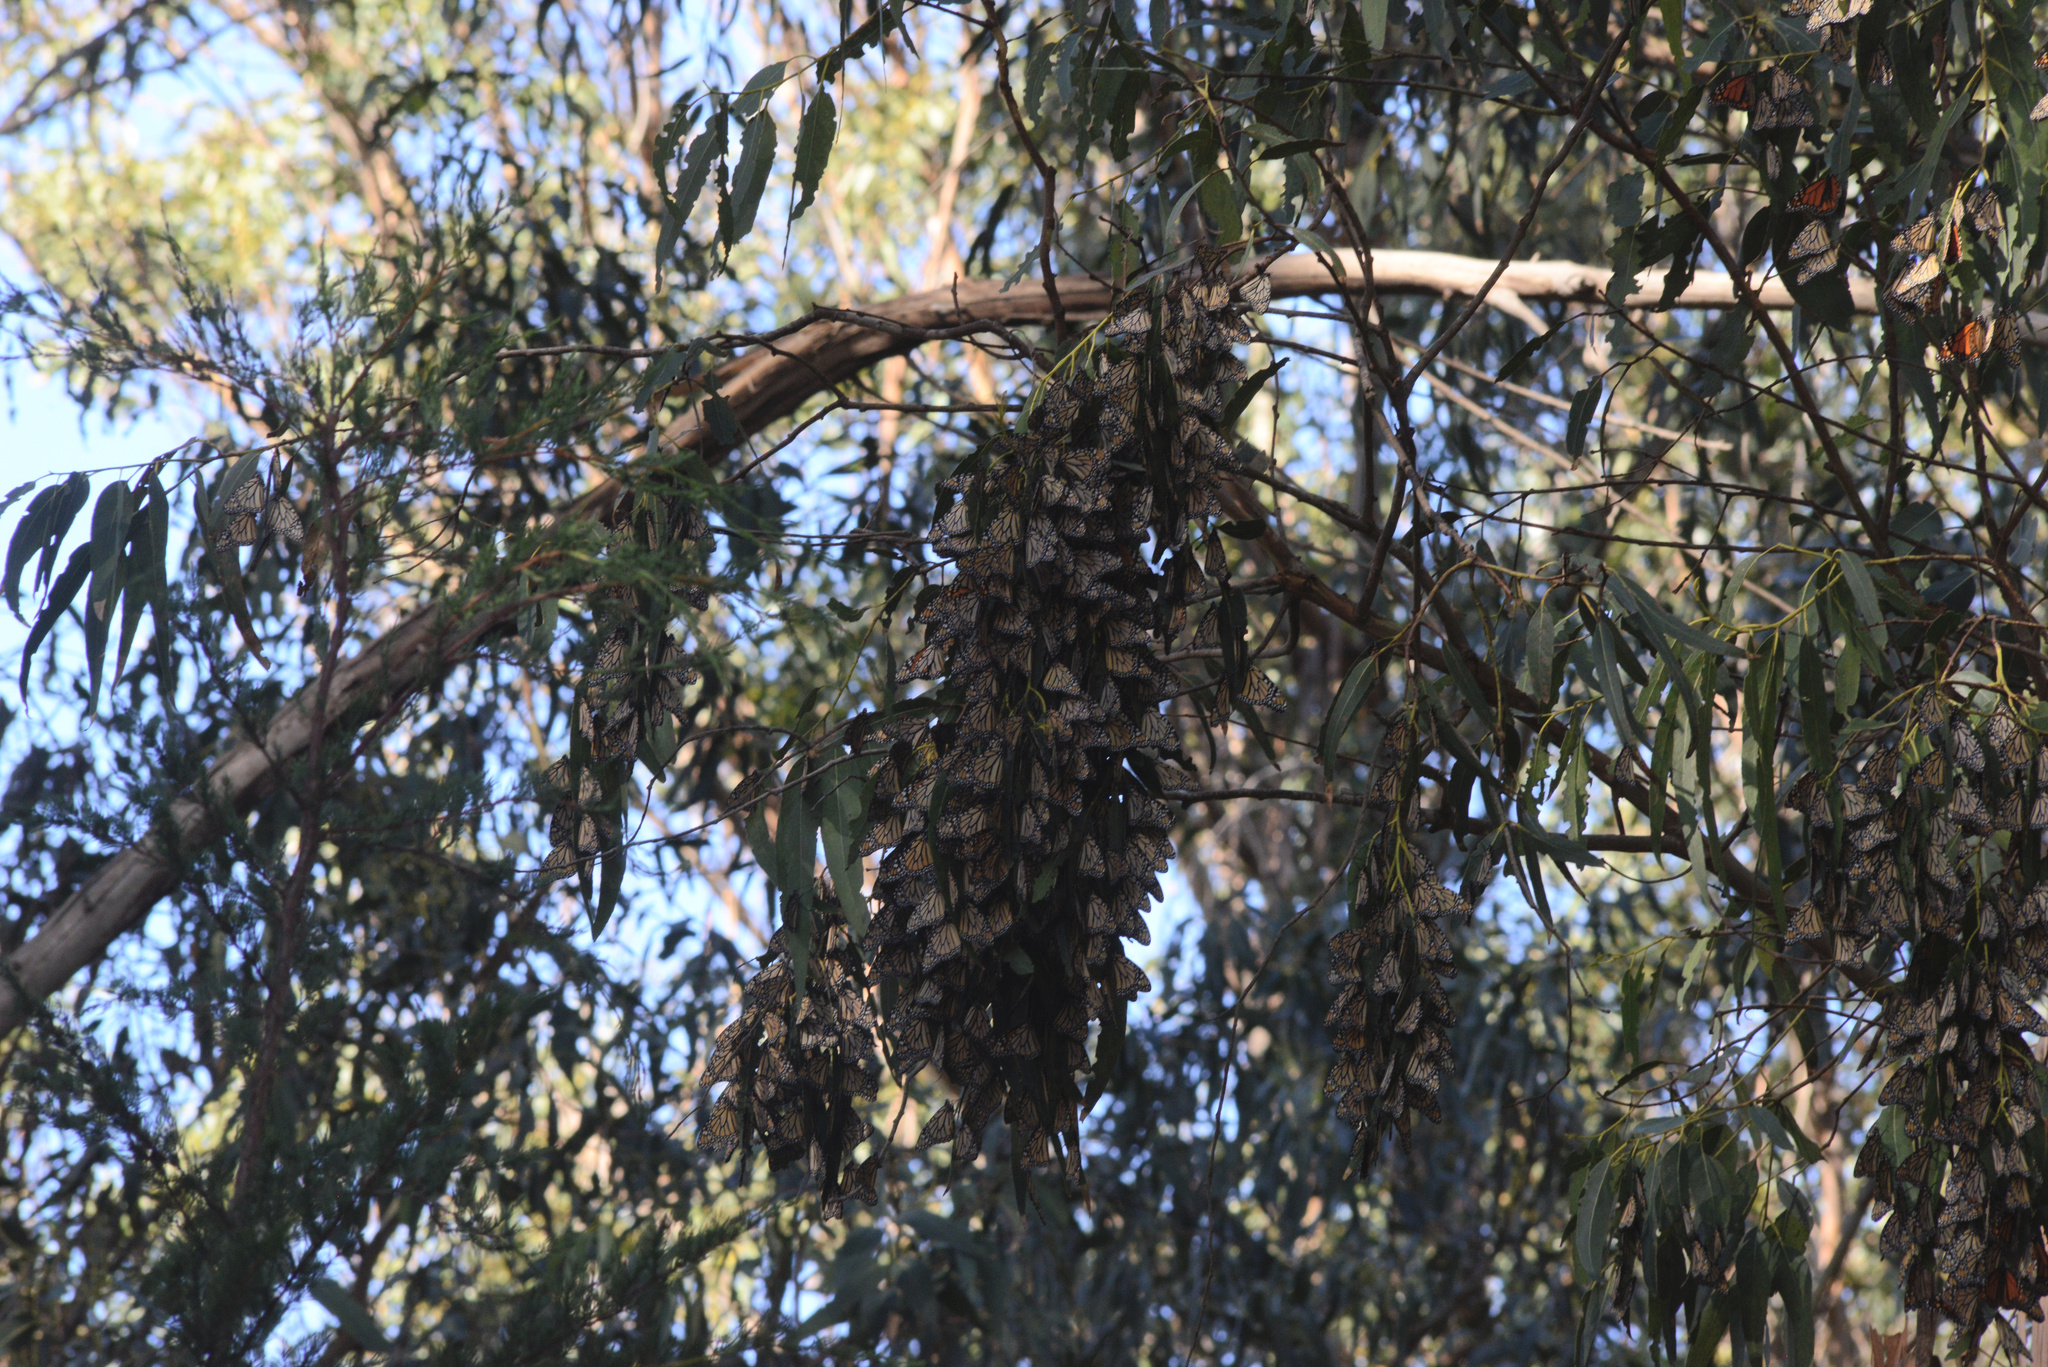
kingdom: Animalia
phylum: Arthropoda
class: Insecta
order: Lepidoptera
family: Nymphalidae
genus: Danaus
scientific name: Danaus plexippus
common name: Monarch
